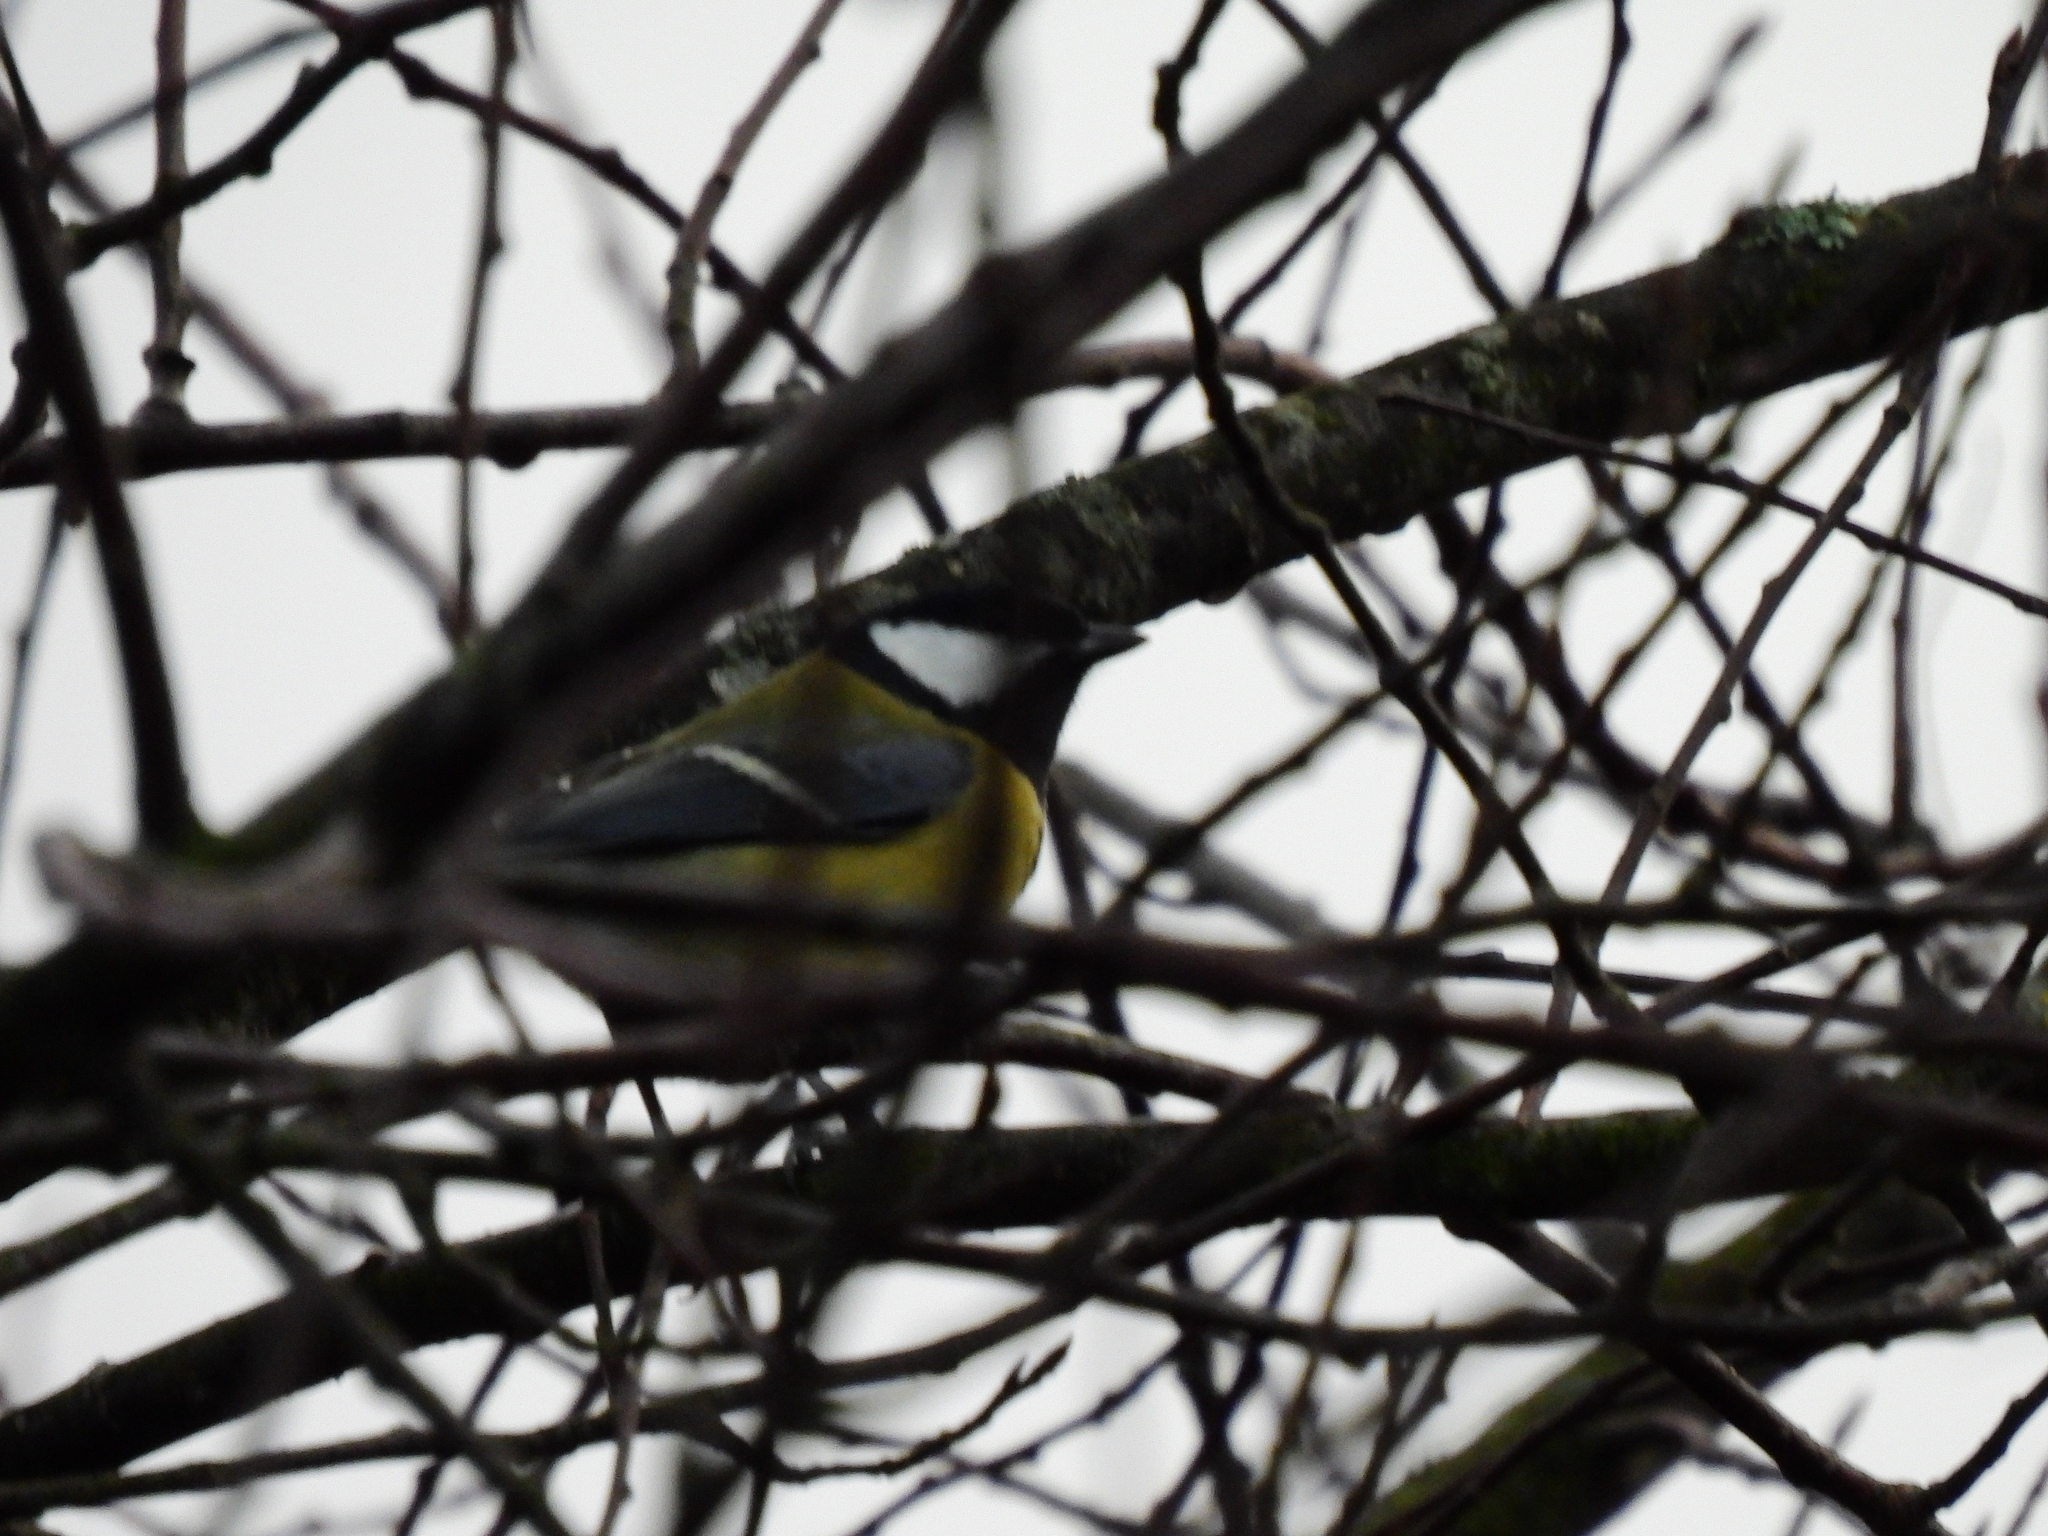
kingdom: Animalia
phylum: Chordata
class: Aves
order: Passeriformes
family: Paridae
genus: Parus
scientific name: Parus major
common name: Great tit
